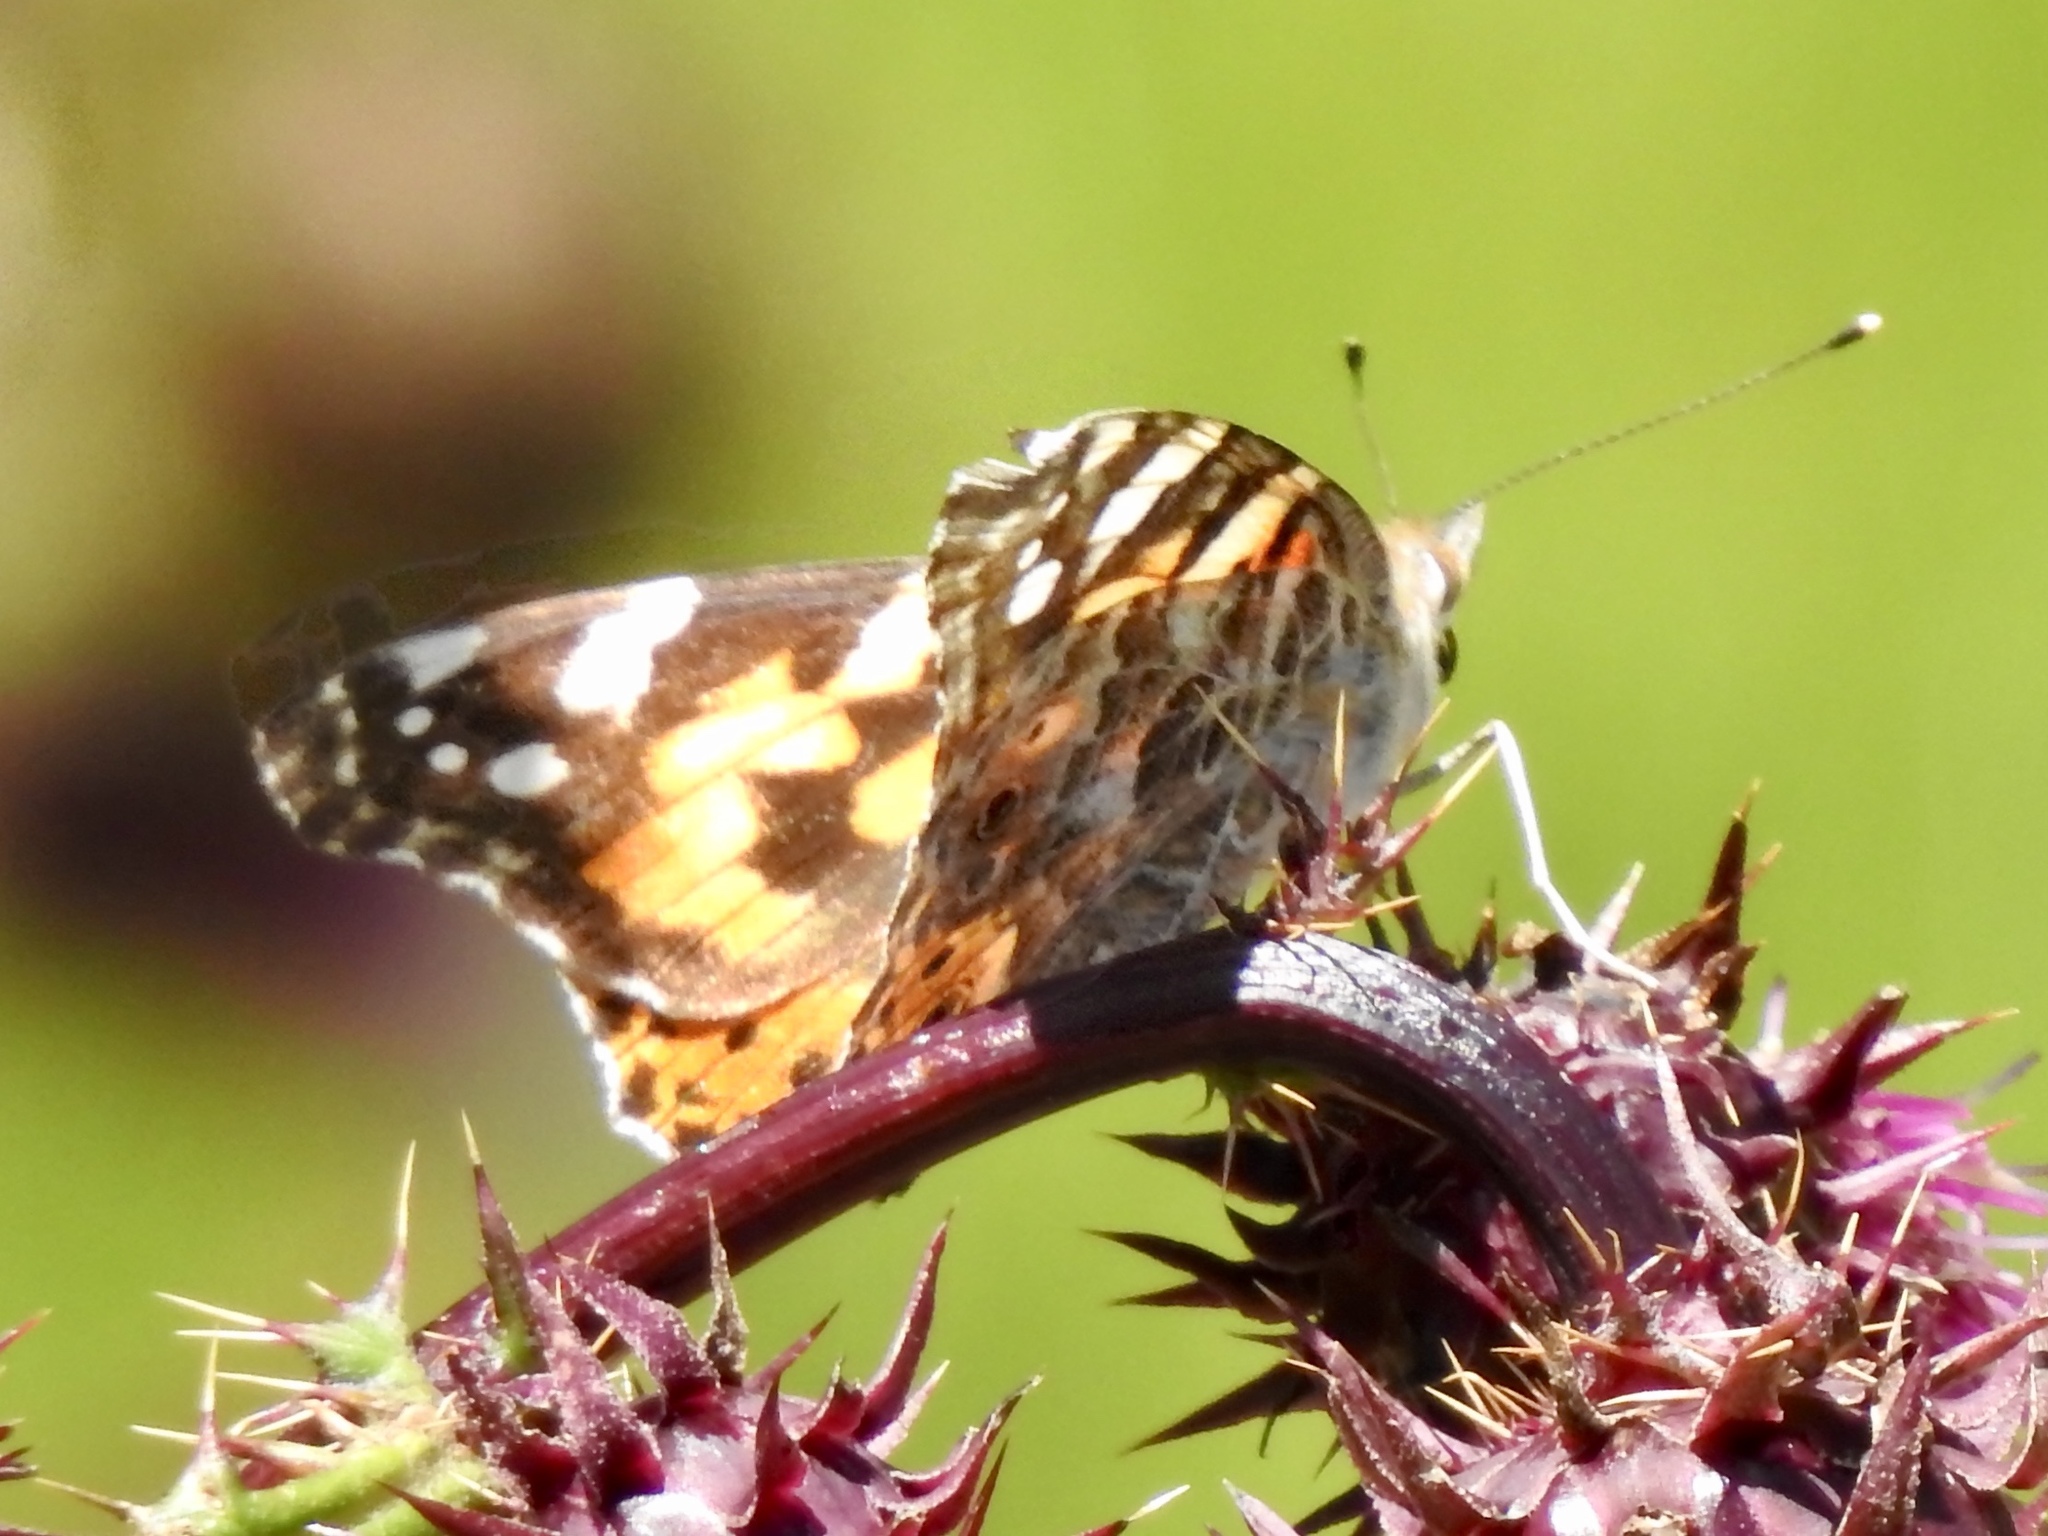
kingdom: Animalia
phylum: Arthropoda
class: Insecta
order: Lepidoptera
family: Nymphalidae
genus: Vanessa
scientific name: Vanessa cardui
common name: Painted lady
